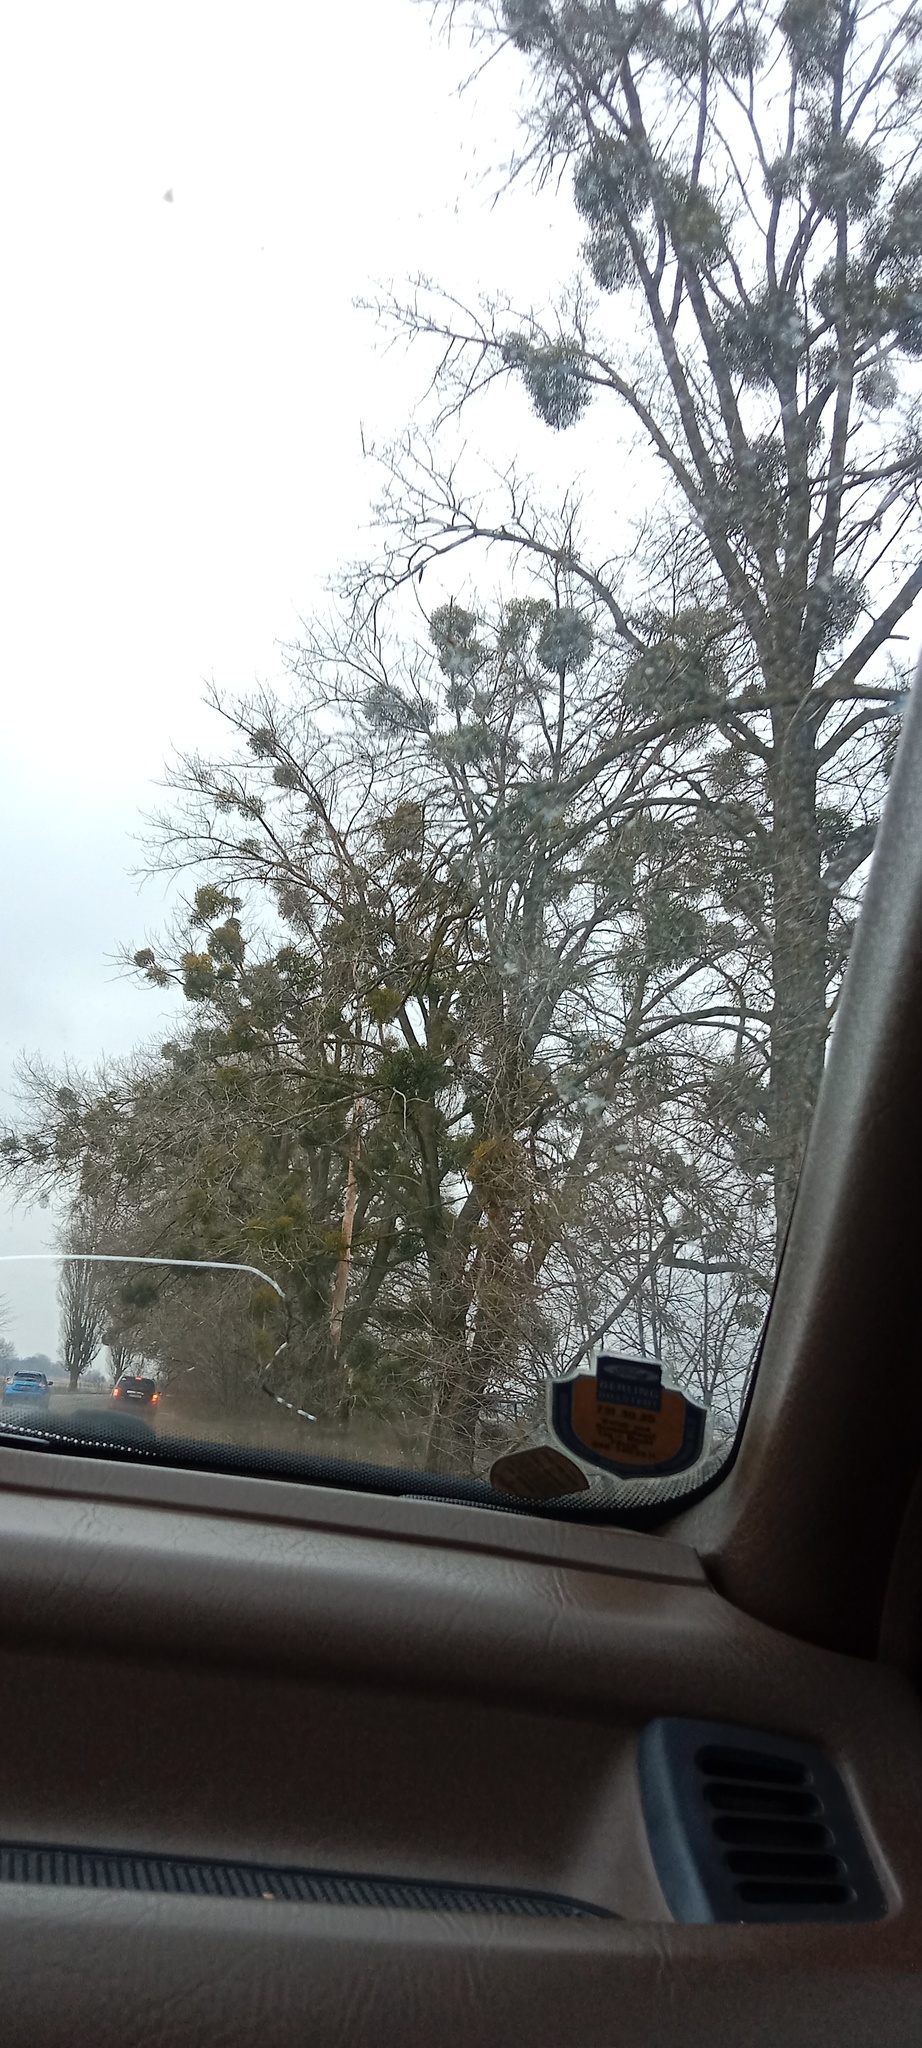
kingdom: Plantae
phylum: Tracheophyta
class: Magnoliopsida
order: Santalales
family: Viscaceae
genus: Viscum
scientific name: Viscum album
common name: Mistletoe
